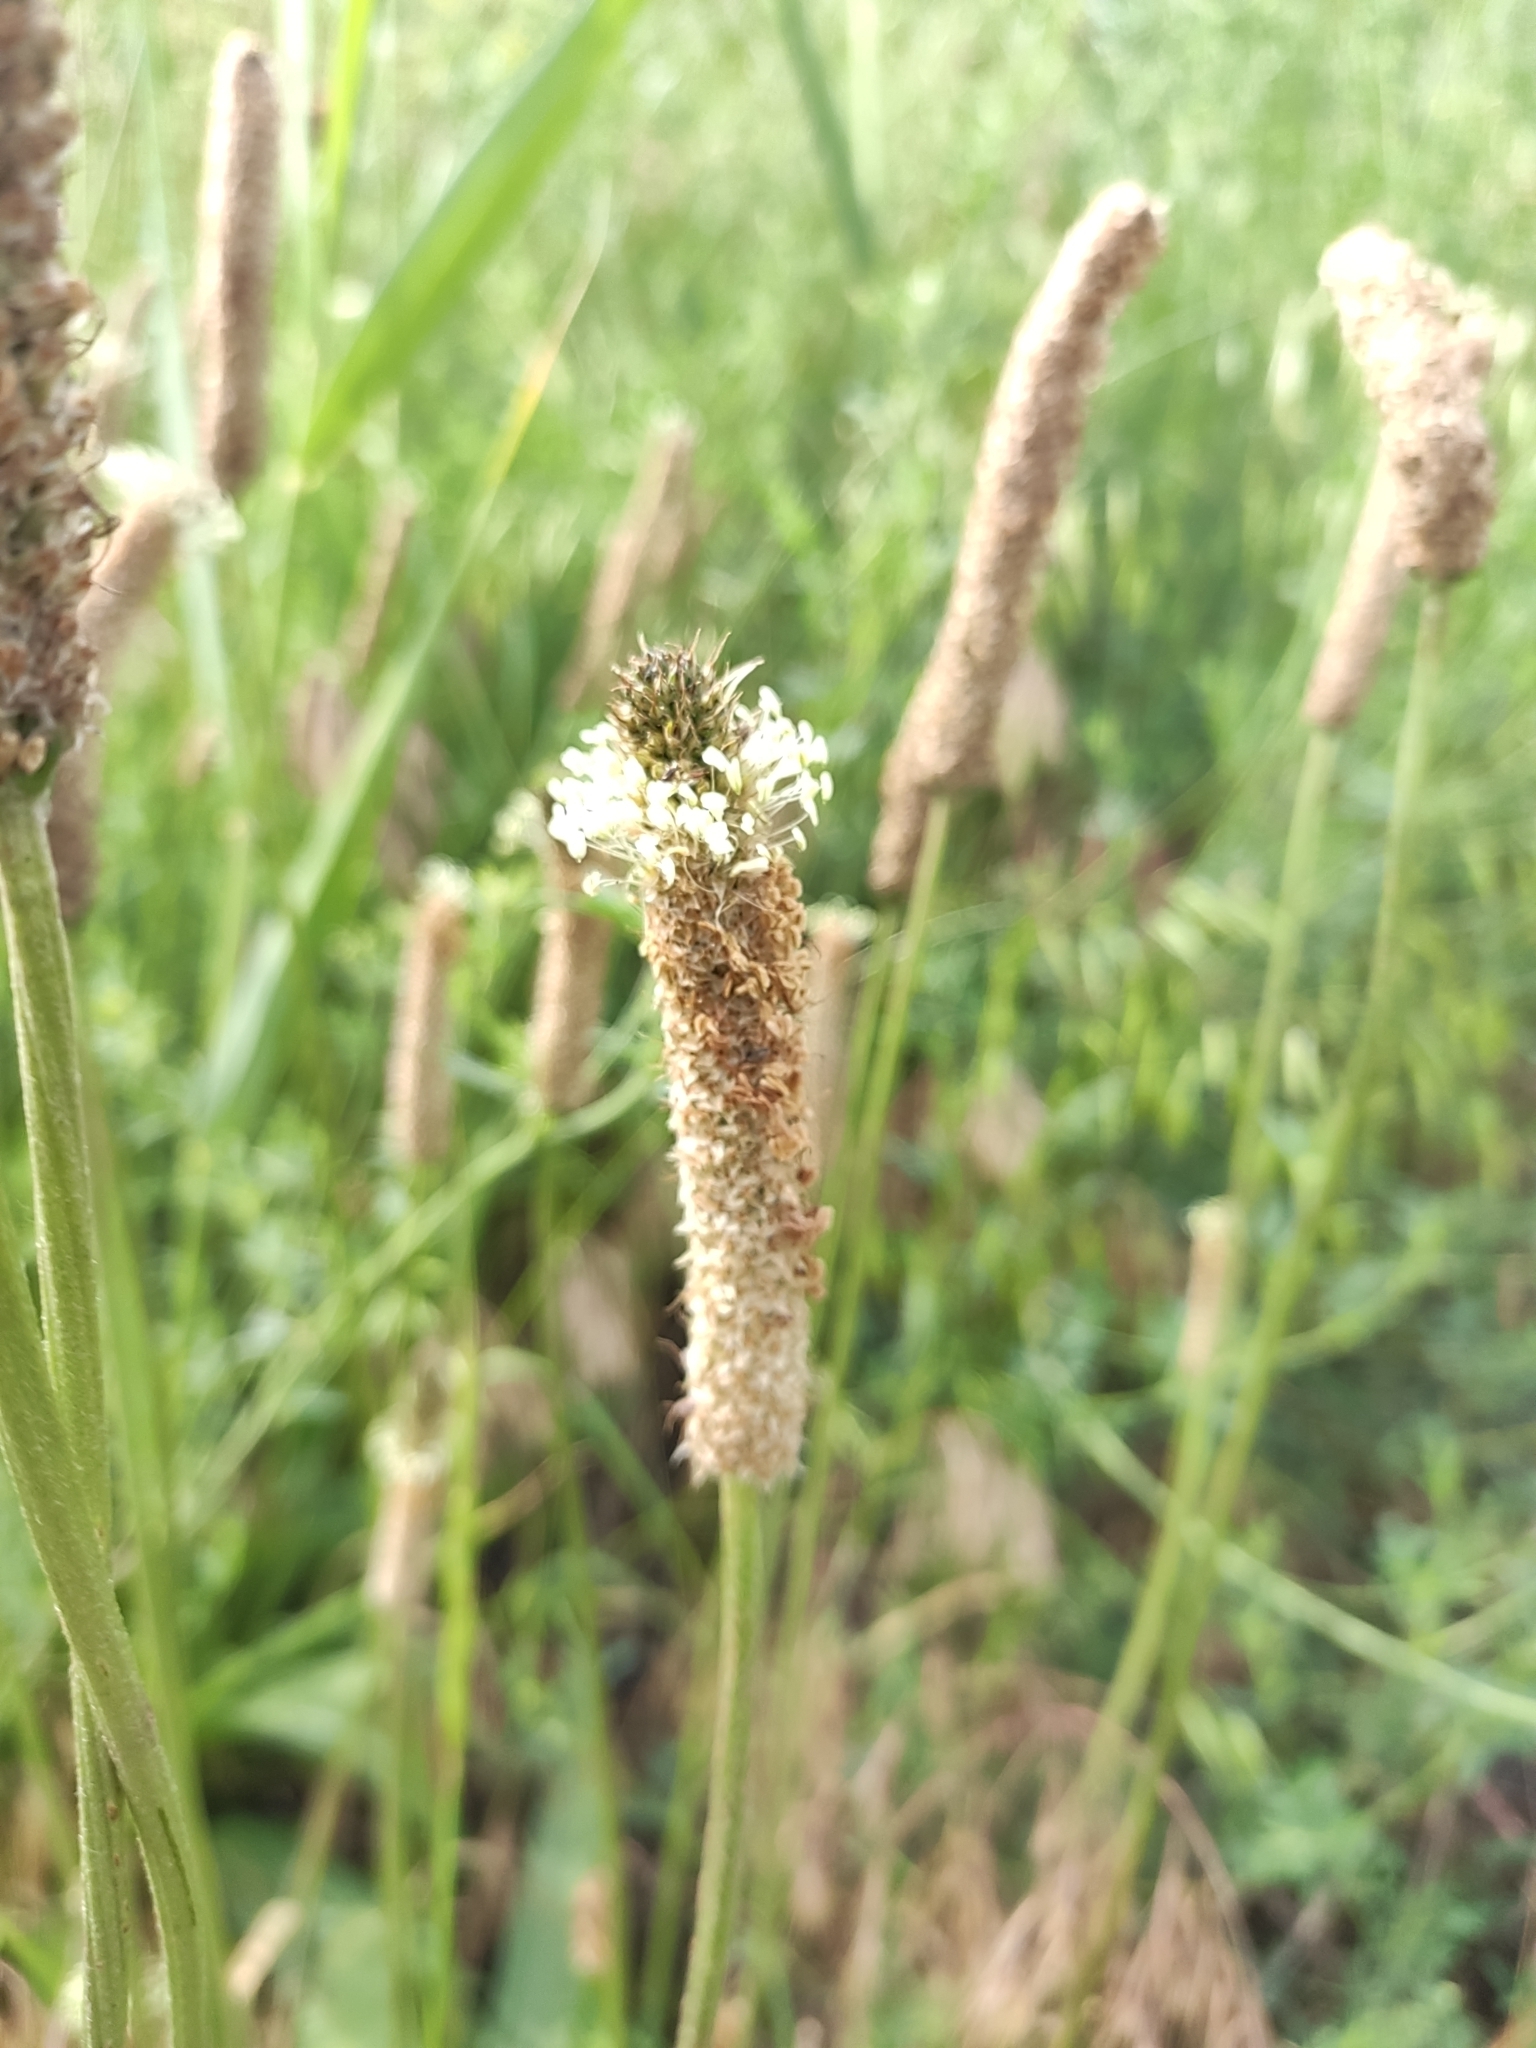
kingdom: Plantae
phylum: Tracheophyta
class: Magnoliopsida
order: Lamiales
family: Plantaginaceae
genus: Plantago
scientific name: Plantago lanceolata
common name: Ribwort plantain
